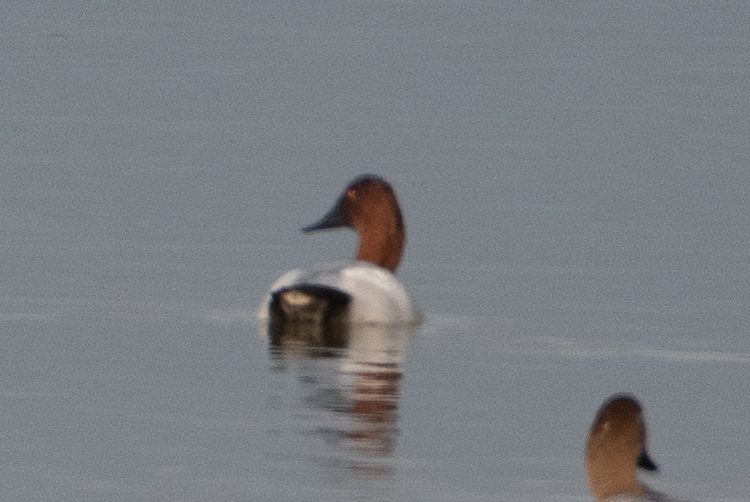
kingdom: Animalia
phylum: Chordata
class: Aves
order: Anseriformes
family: Anatidae
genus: Aythya
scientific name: Aythya valisineria
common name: Canvasback
